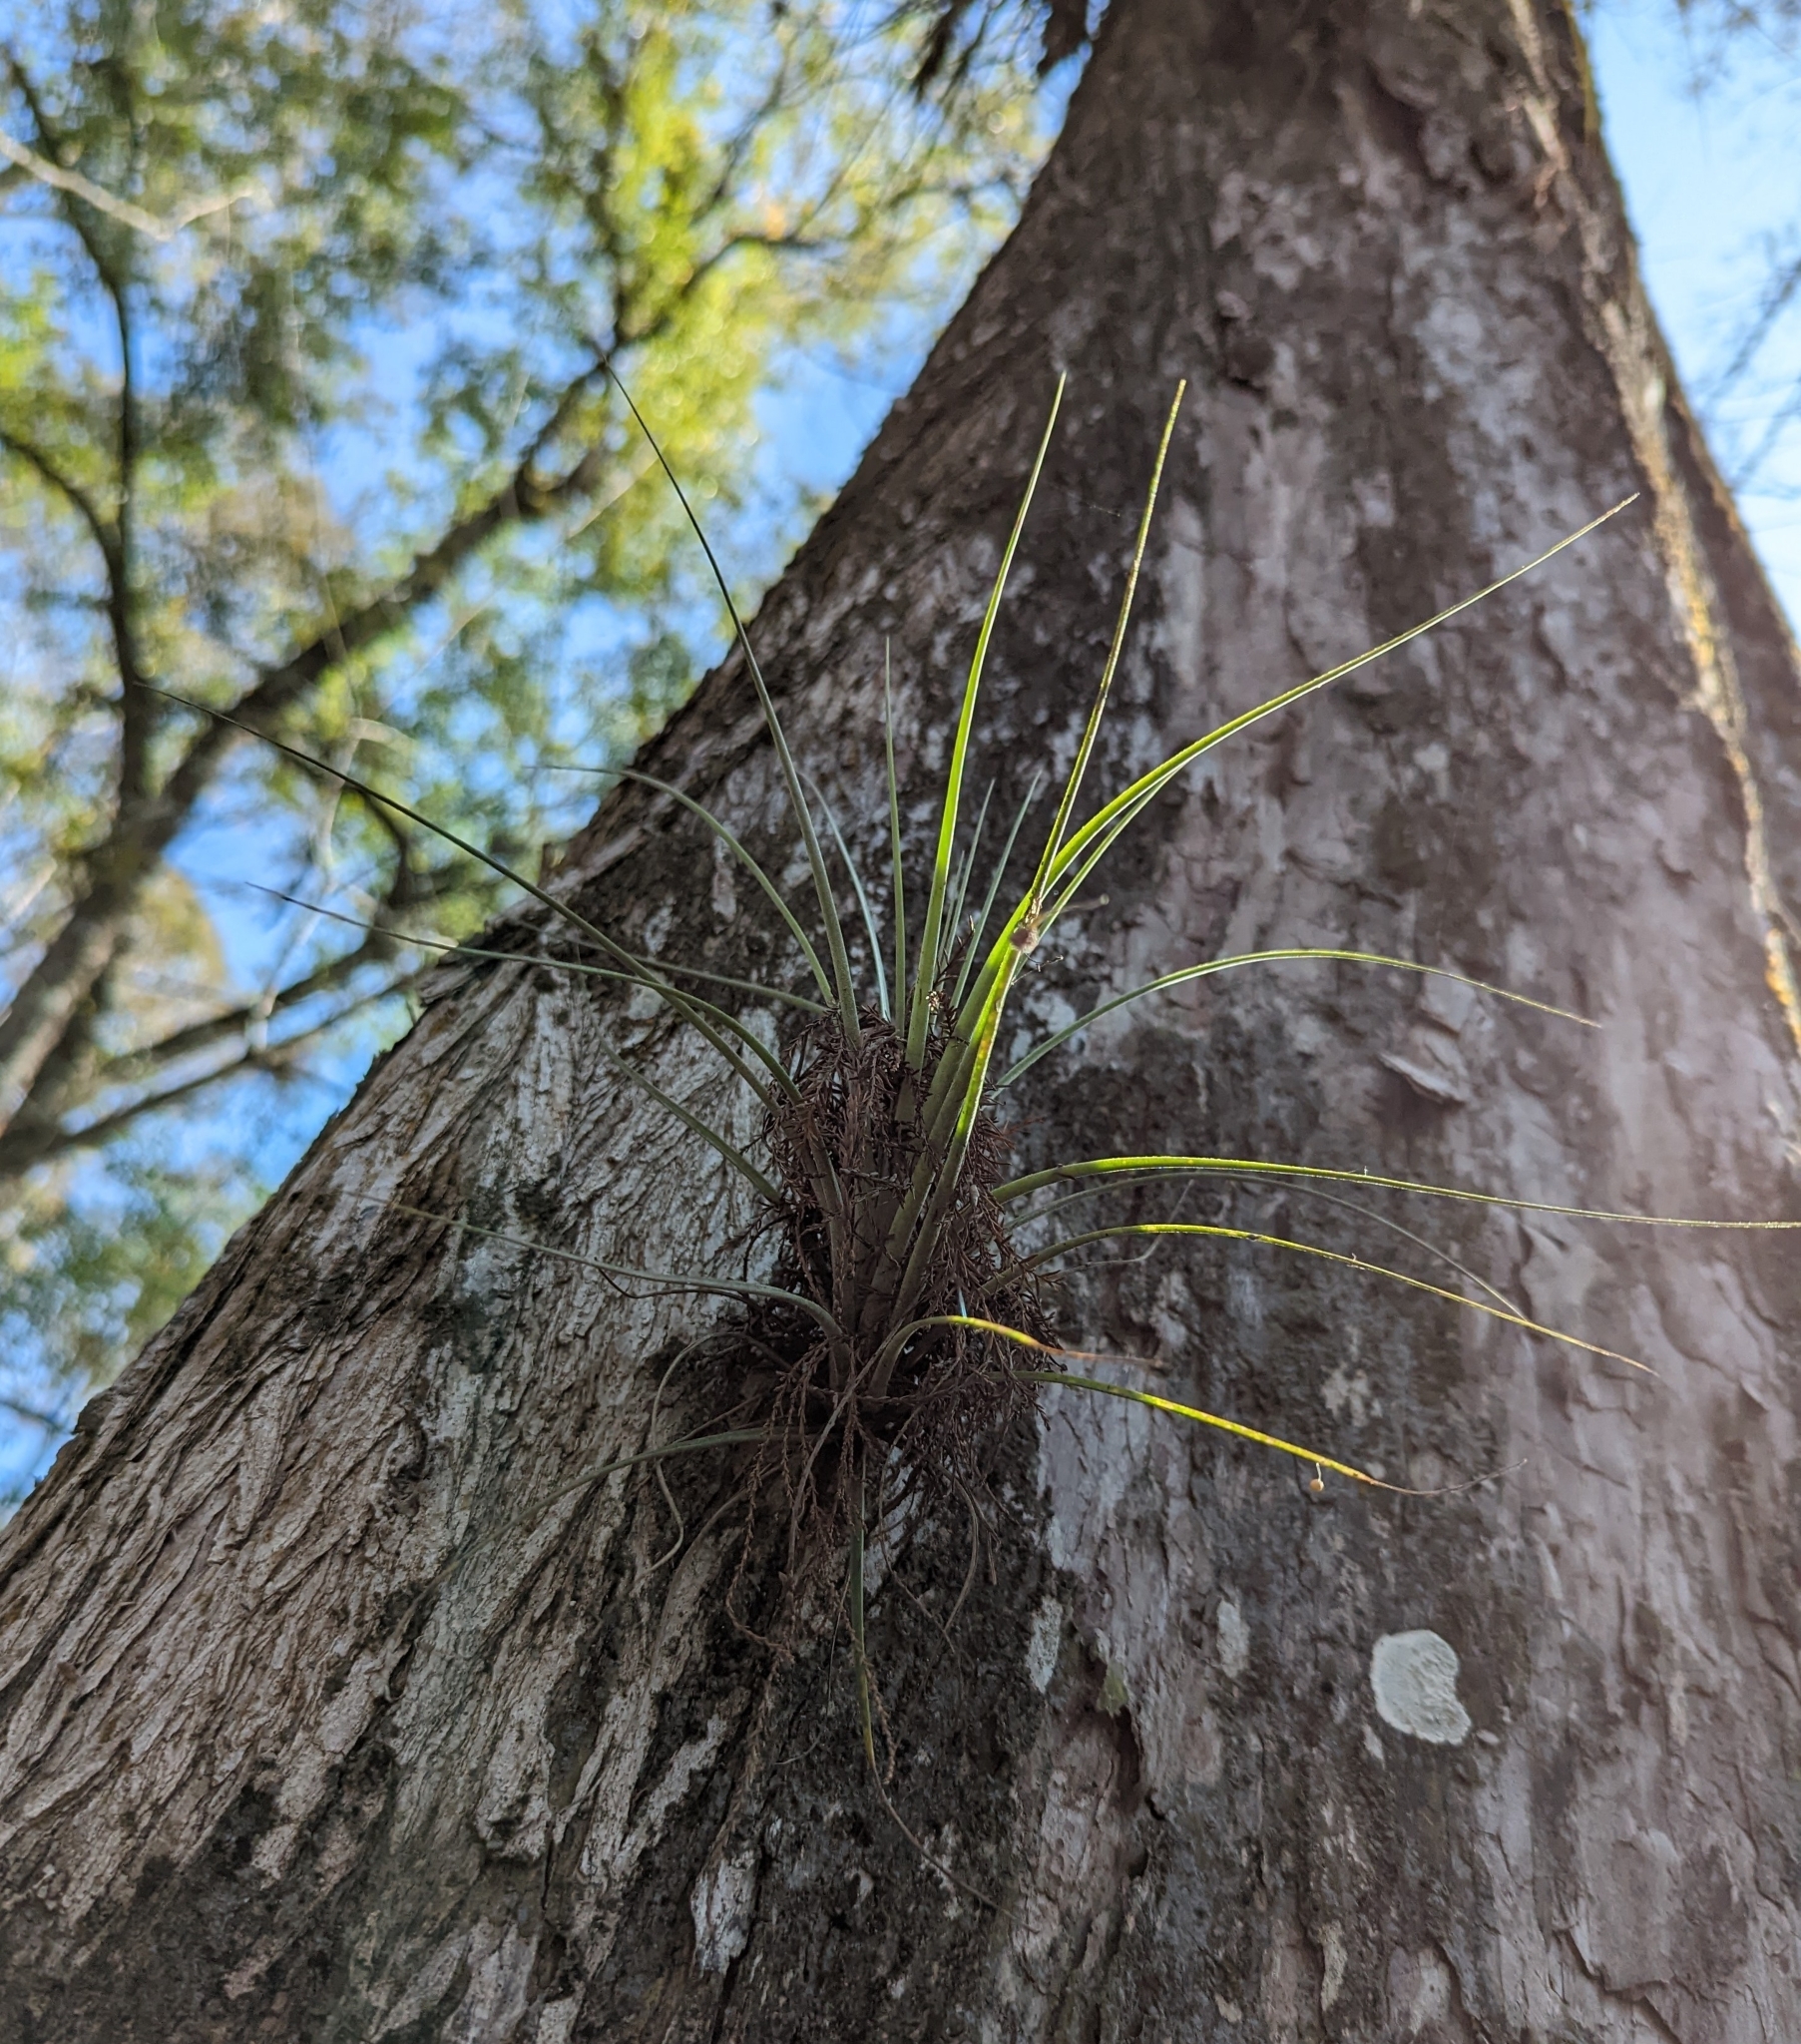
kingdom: Plantae
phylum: Tracheophyta
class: Liliopsida
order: Poales
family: Bromeliaceae
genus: Tillandsia
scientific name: Tillandsia simulata
